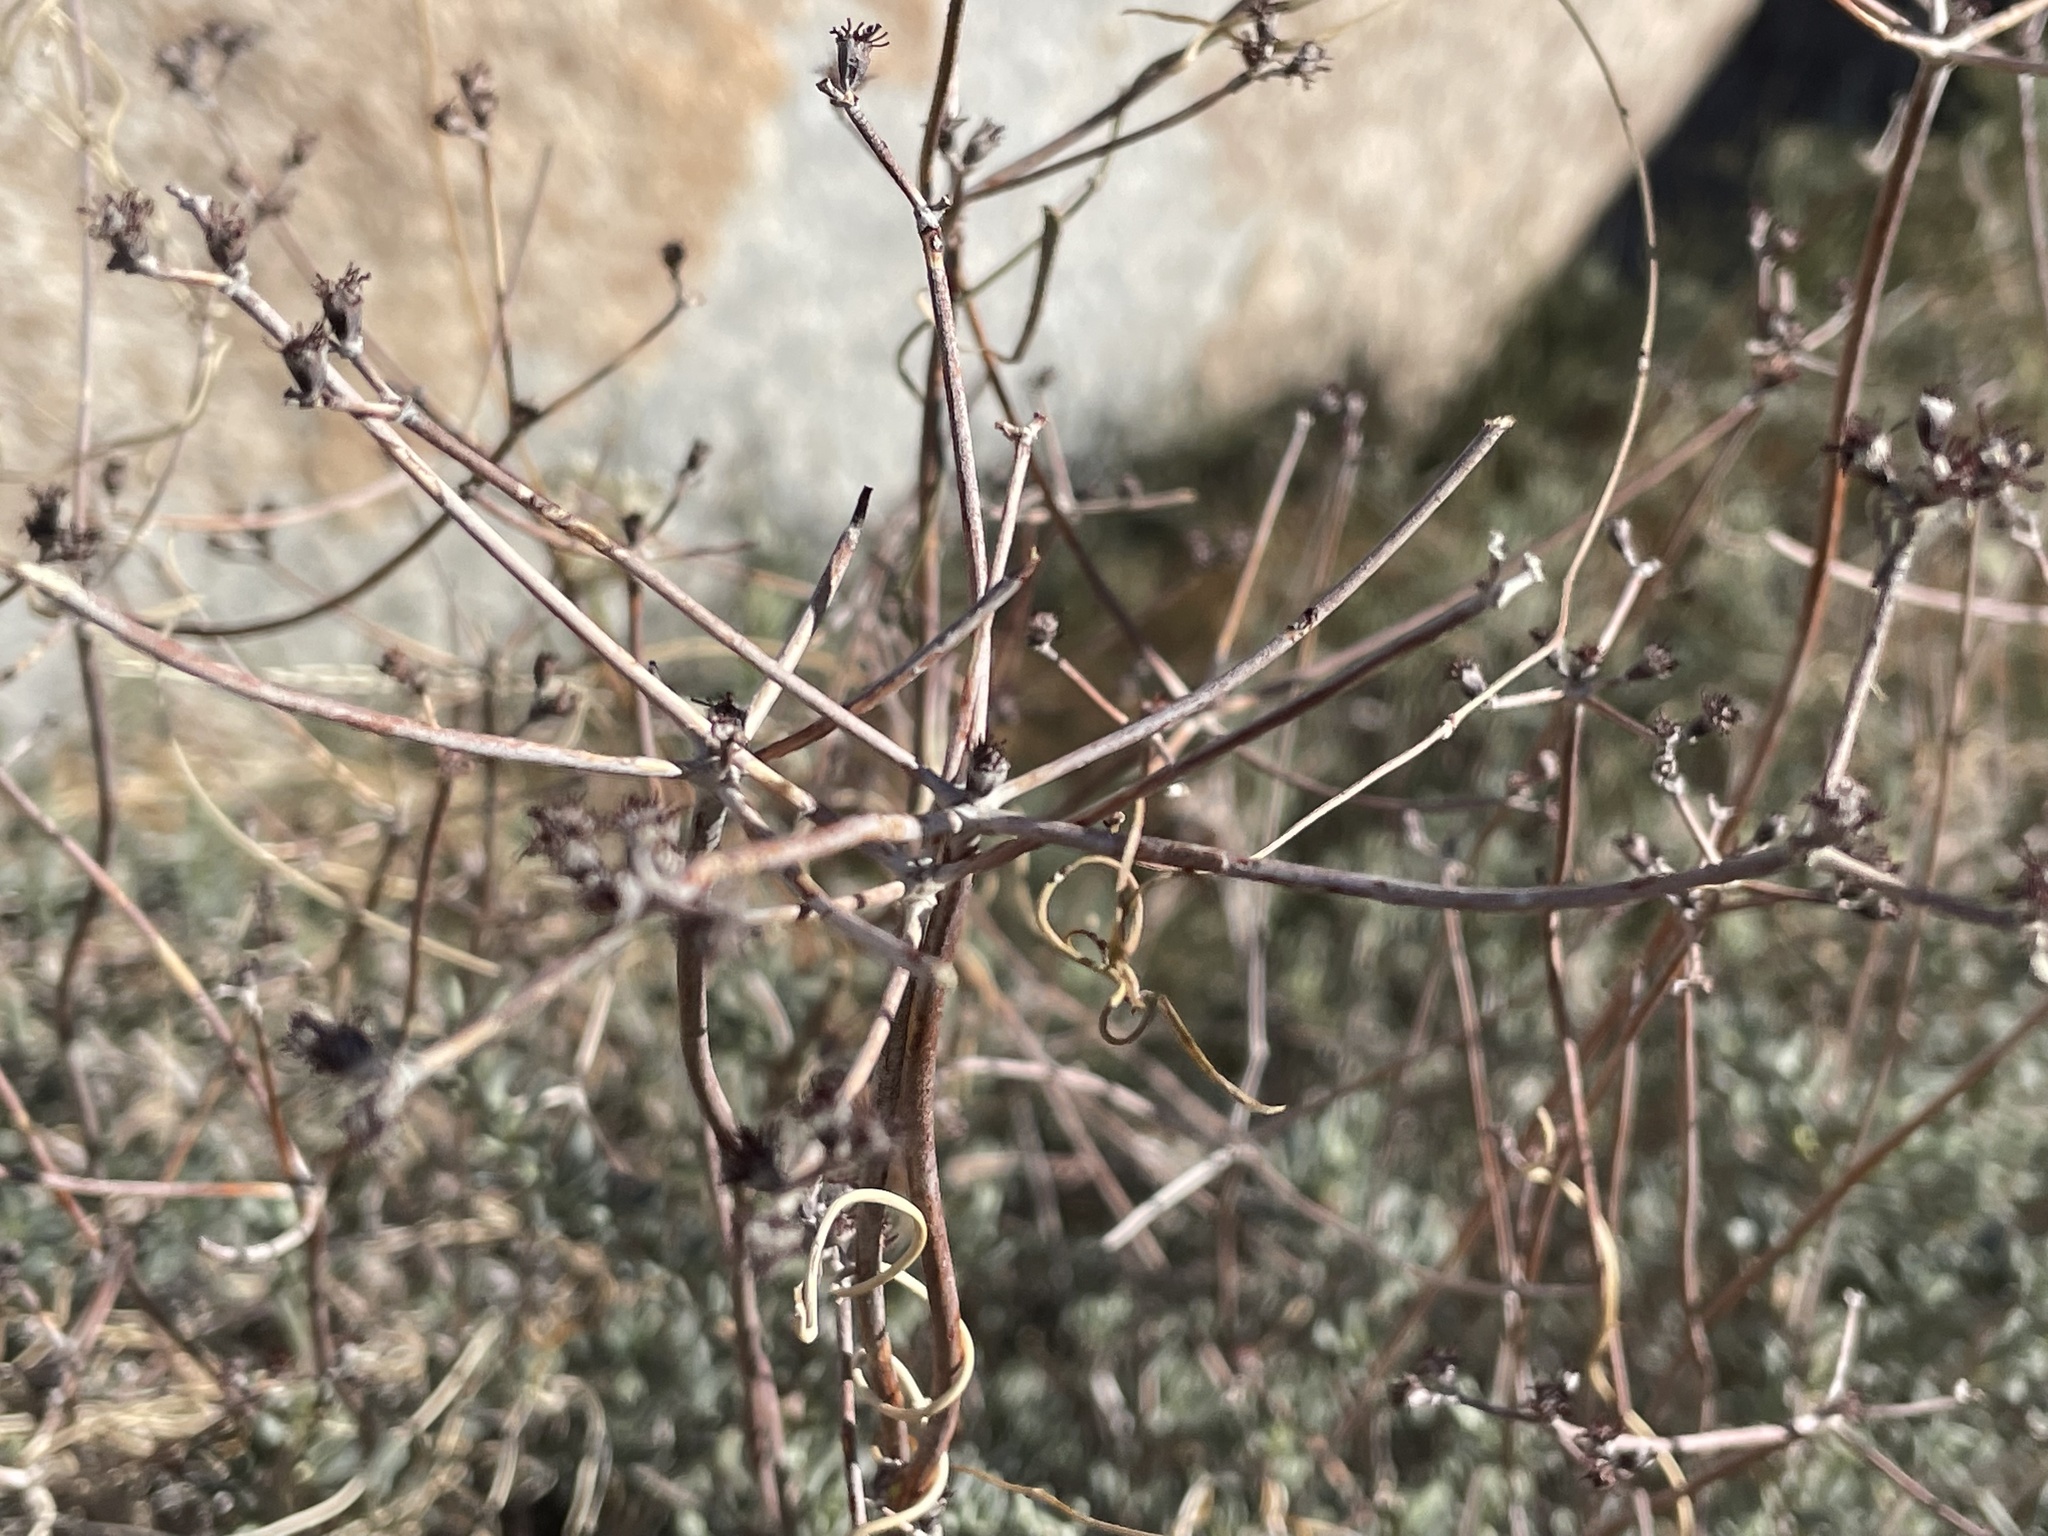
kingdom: Plantae
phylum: Tracheophyta
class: Magnoliopsida
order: Caryophyllales
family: Polygonaceae
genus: Eriogonum
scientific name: Eriogonum fasciculatum
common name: California wild buckwheat
